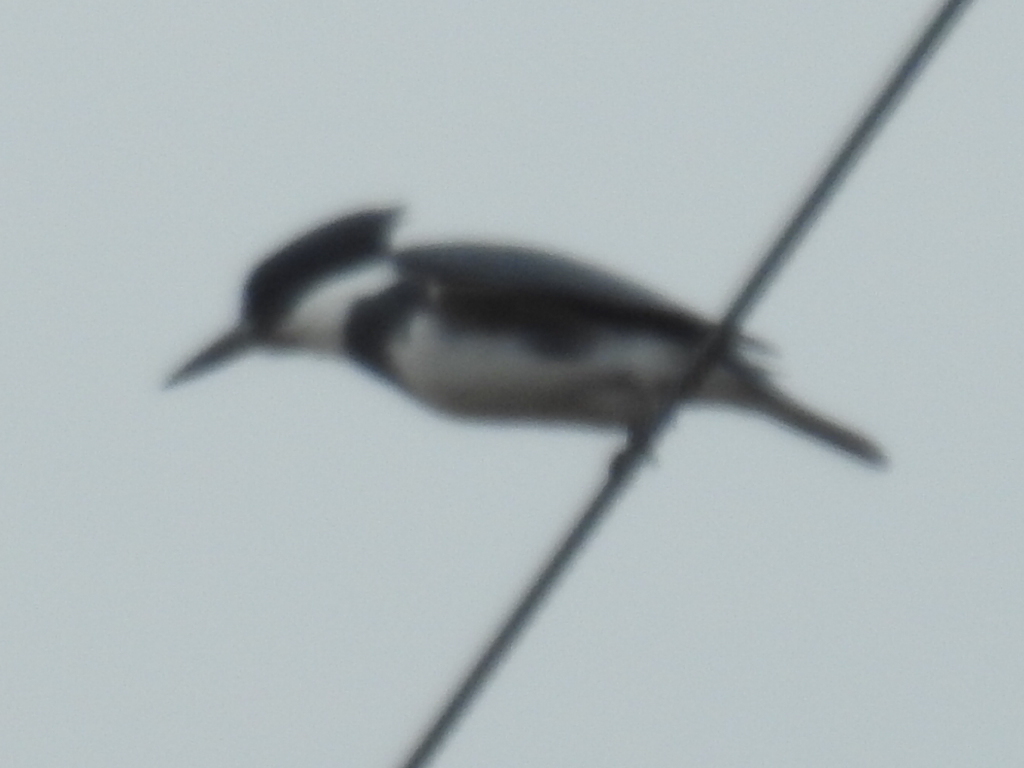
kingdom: Animalia
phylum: Chordata
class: Aves
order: Coraciiformes
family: Alcedinidae
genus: Megaceryle
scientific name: Megaceryle alcyon
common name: Belted kingfisher
